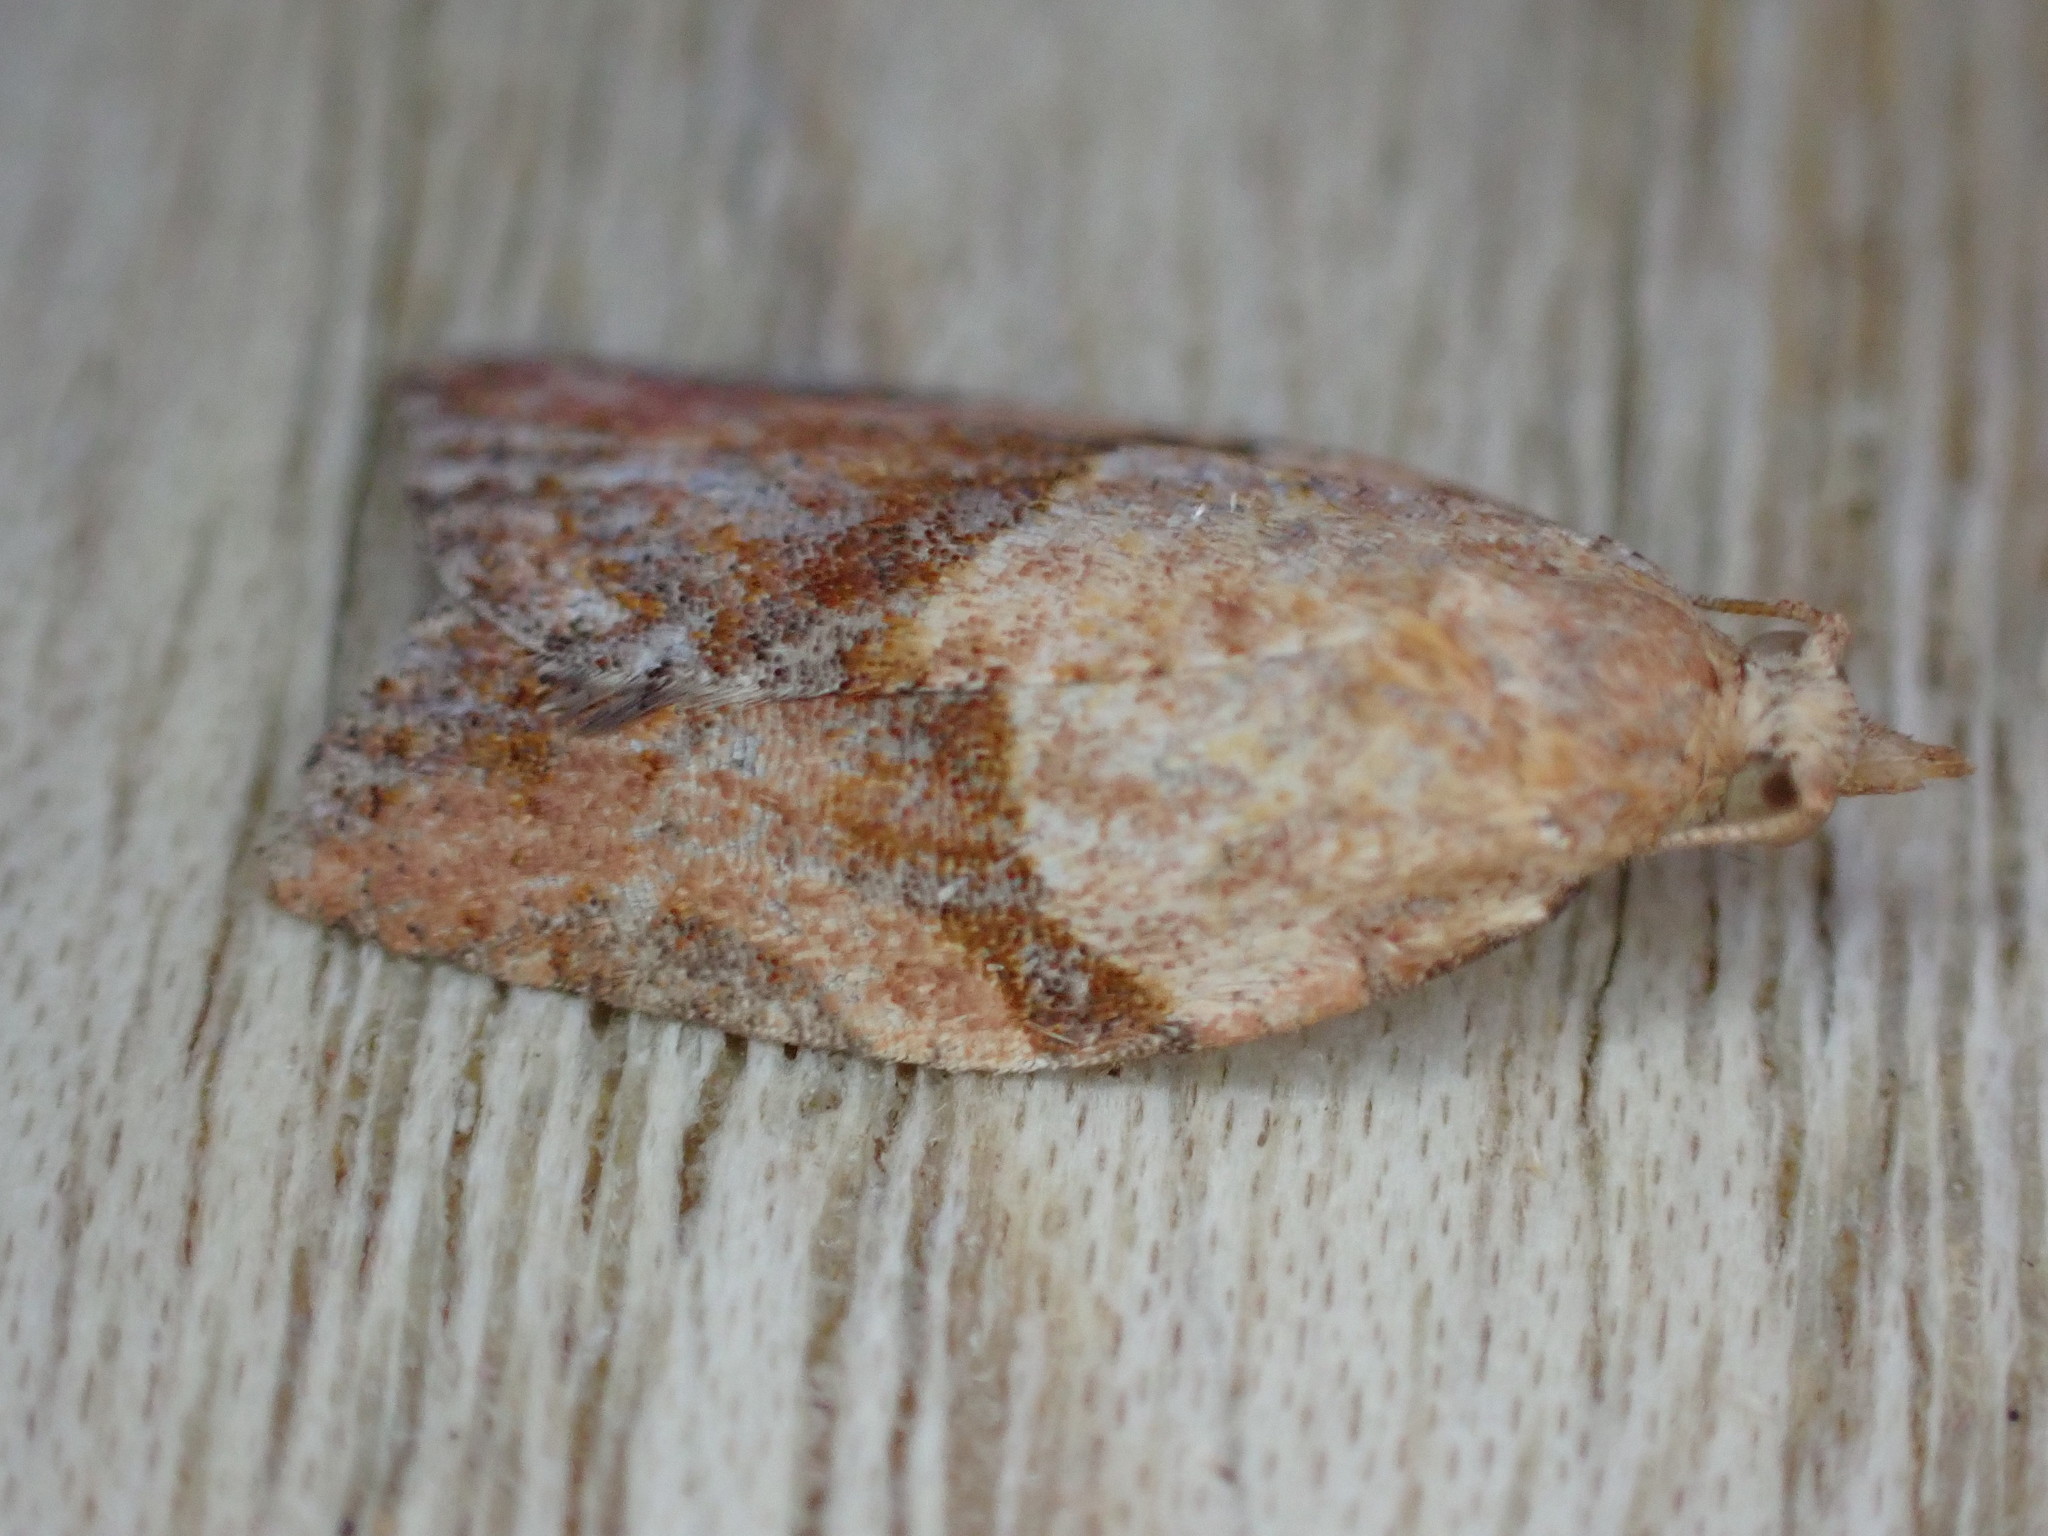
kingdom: Animalia
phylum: Arthropoda
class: Insecta
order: Lepidoptera
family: Tortricidae
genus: Epiphyas
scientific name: Epiphyas postvittana
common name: Light brown apple moth
